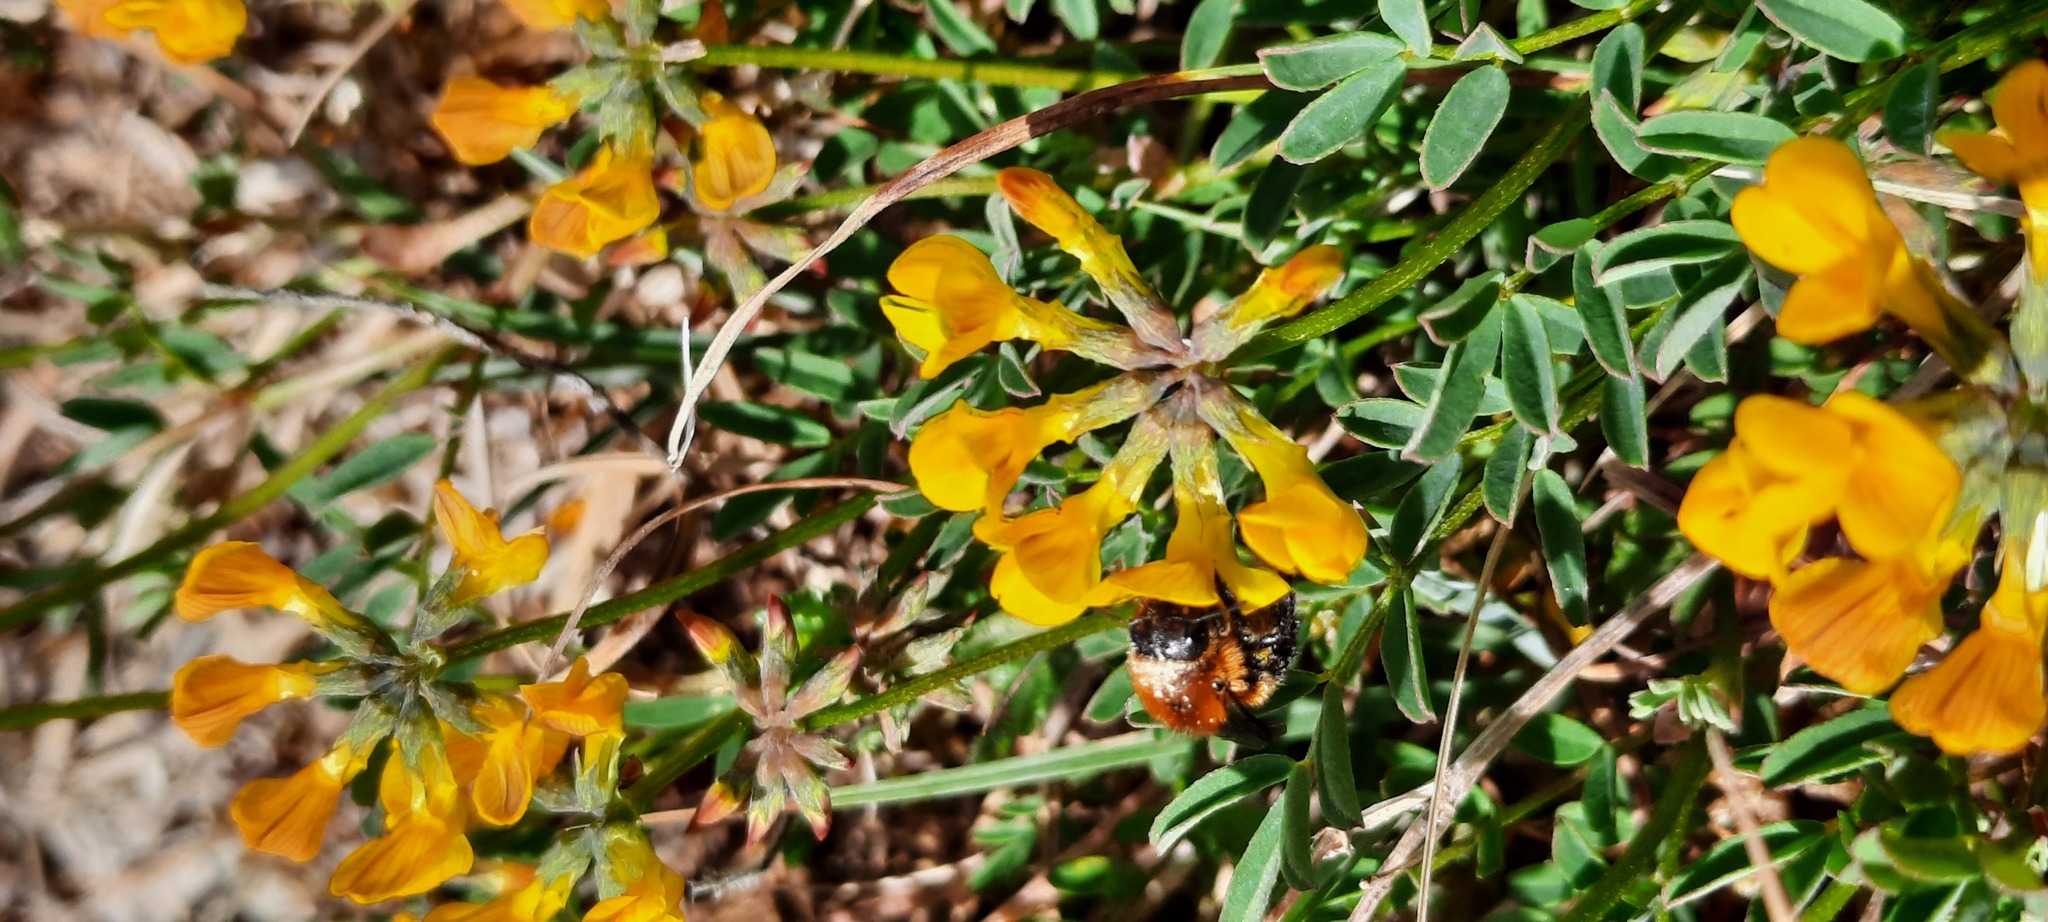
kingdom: Plantae
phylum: Tracheophyta
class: Magnoliopsida
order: Fabales
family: Fabaceae
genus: Hippocrepis
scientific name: Hippocrepis comosa
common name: Horseshoe vetch
